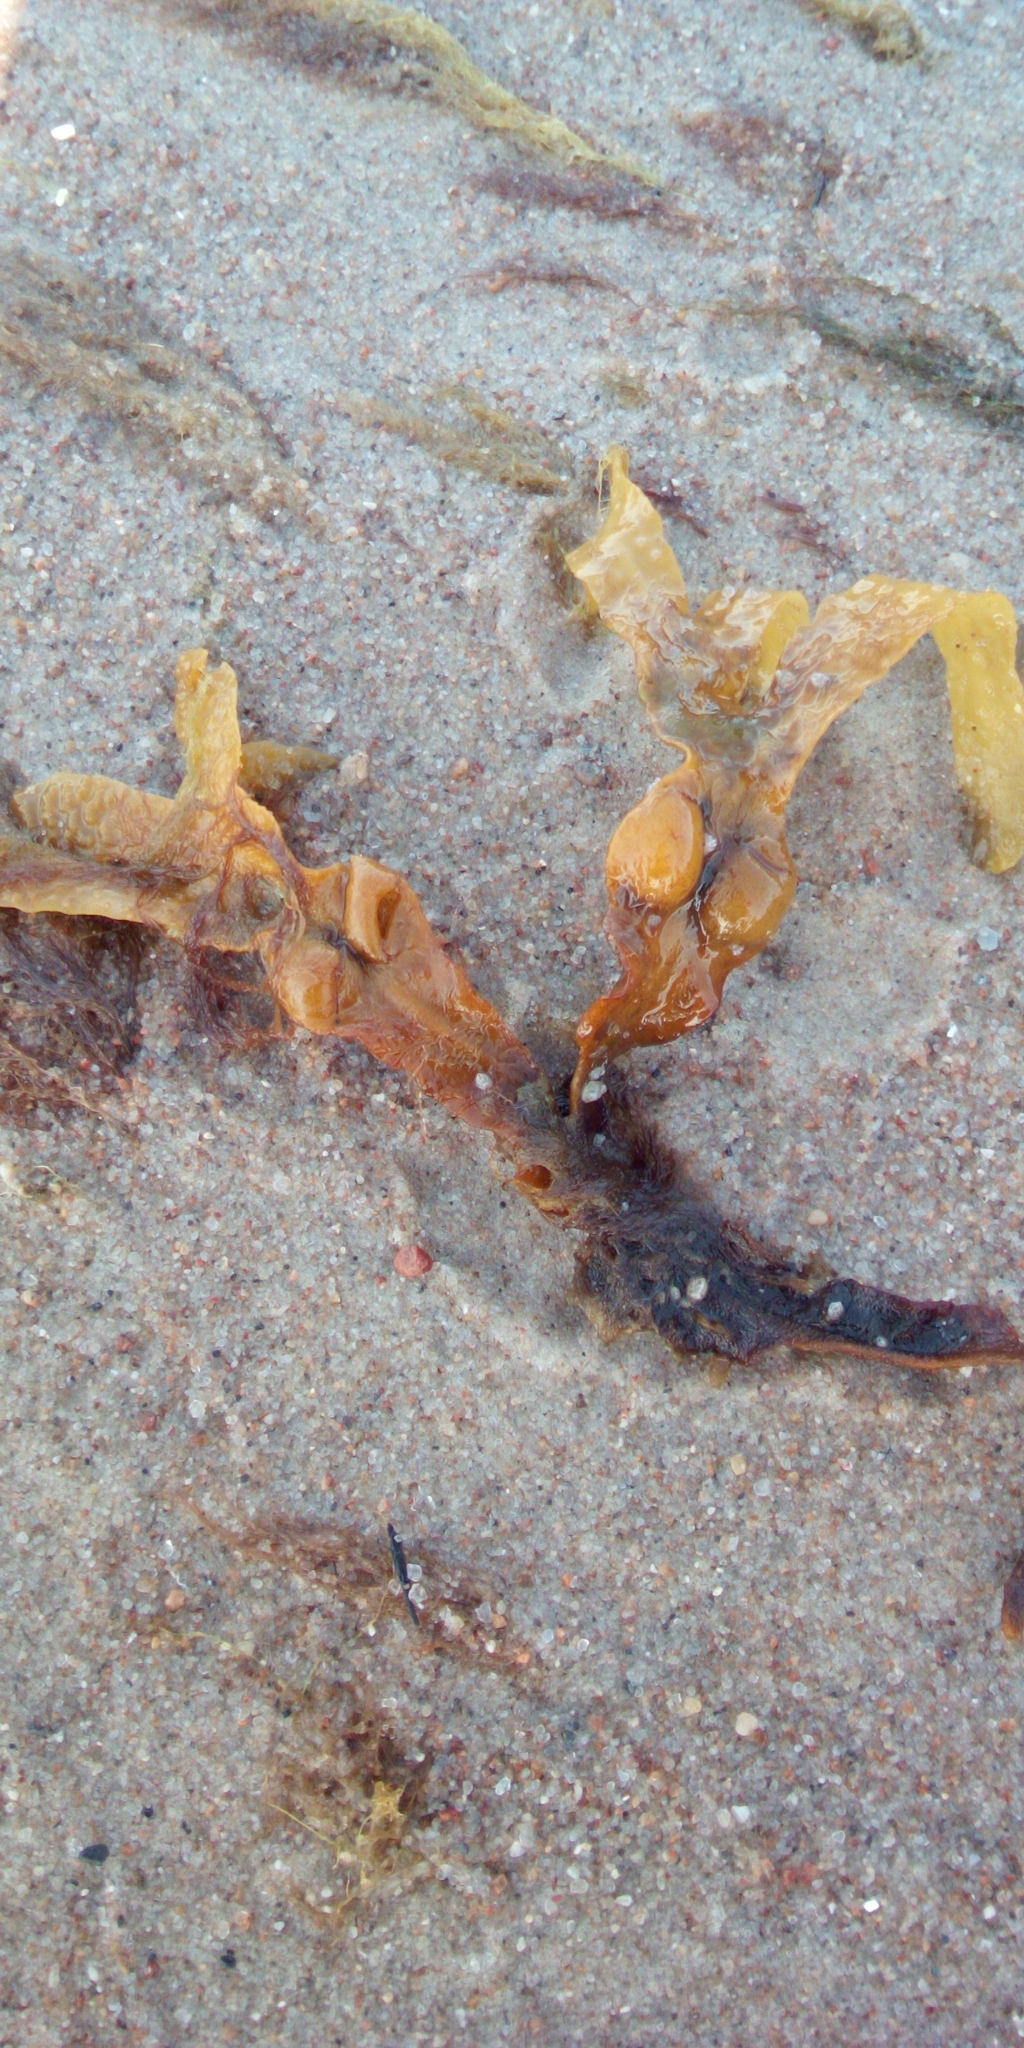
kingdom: Chromista
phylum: Ochrophyta
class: Phaeophyceae
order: Fucales
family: Fucaceae
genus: Fucus
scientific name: Fucus vesiculosus
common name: Bladder wrack
